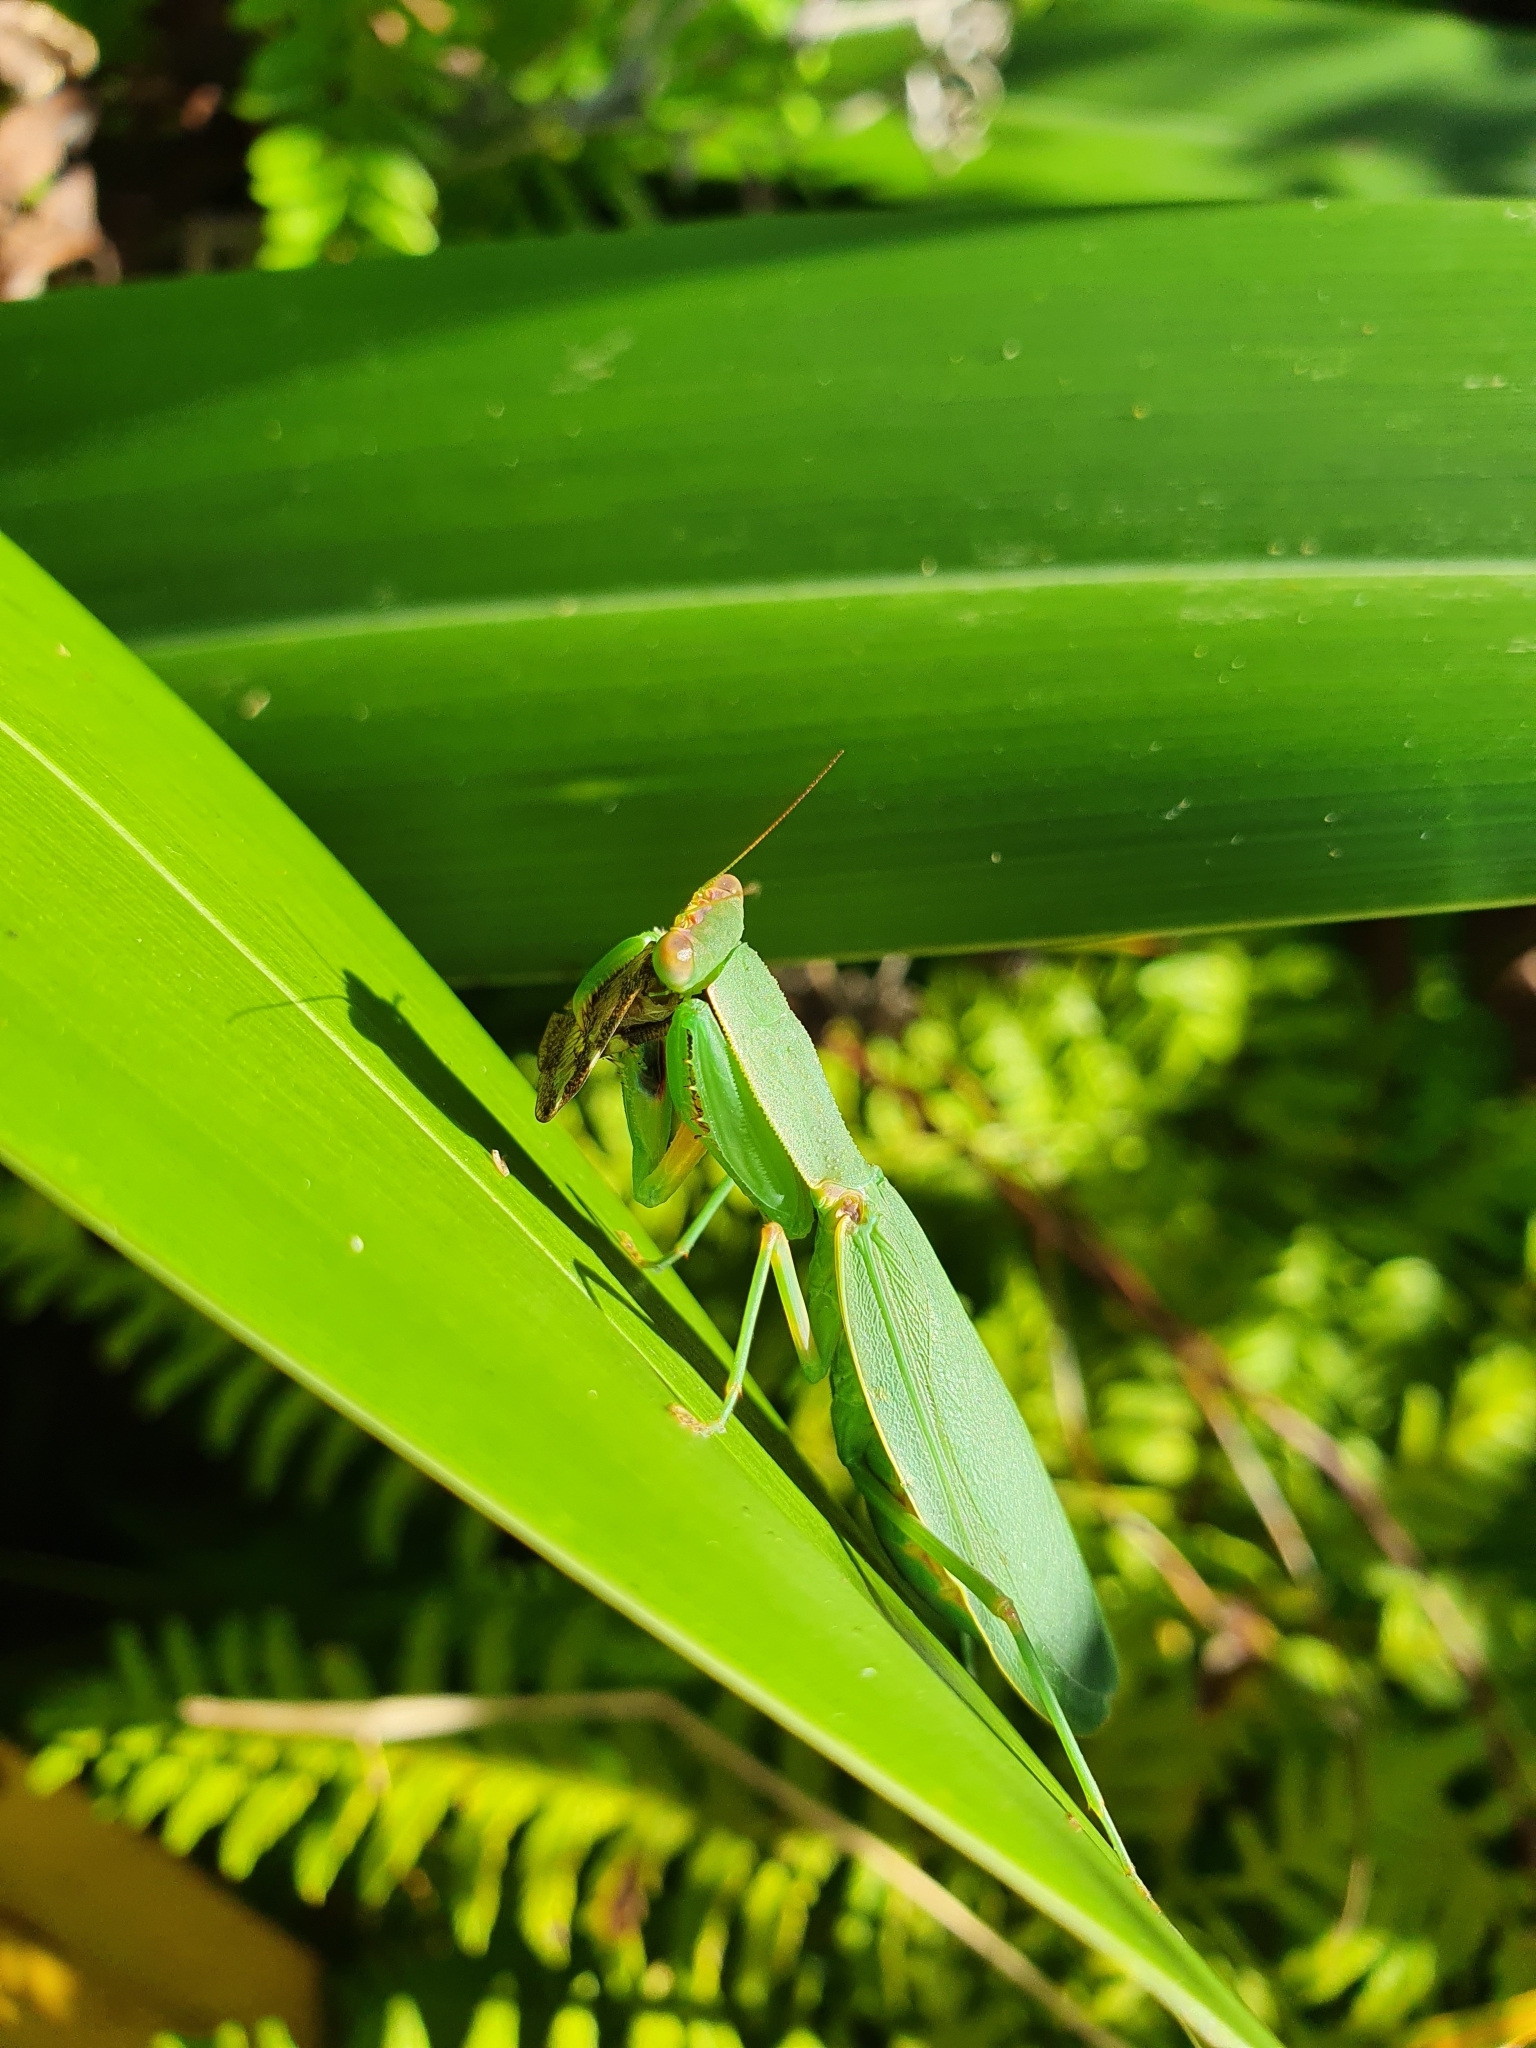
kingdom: Animalia
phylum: Arthropoda
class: Insecta
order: Hemiptera
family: Ricaniidae
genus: Scolypopa
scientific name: Scolypopa australis
